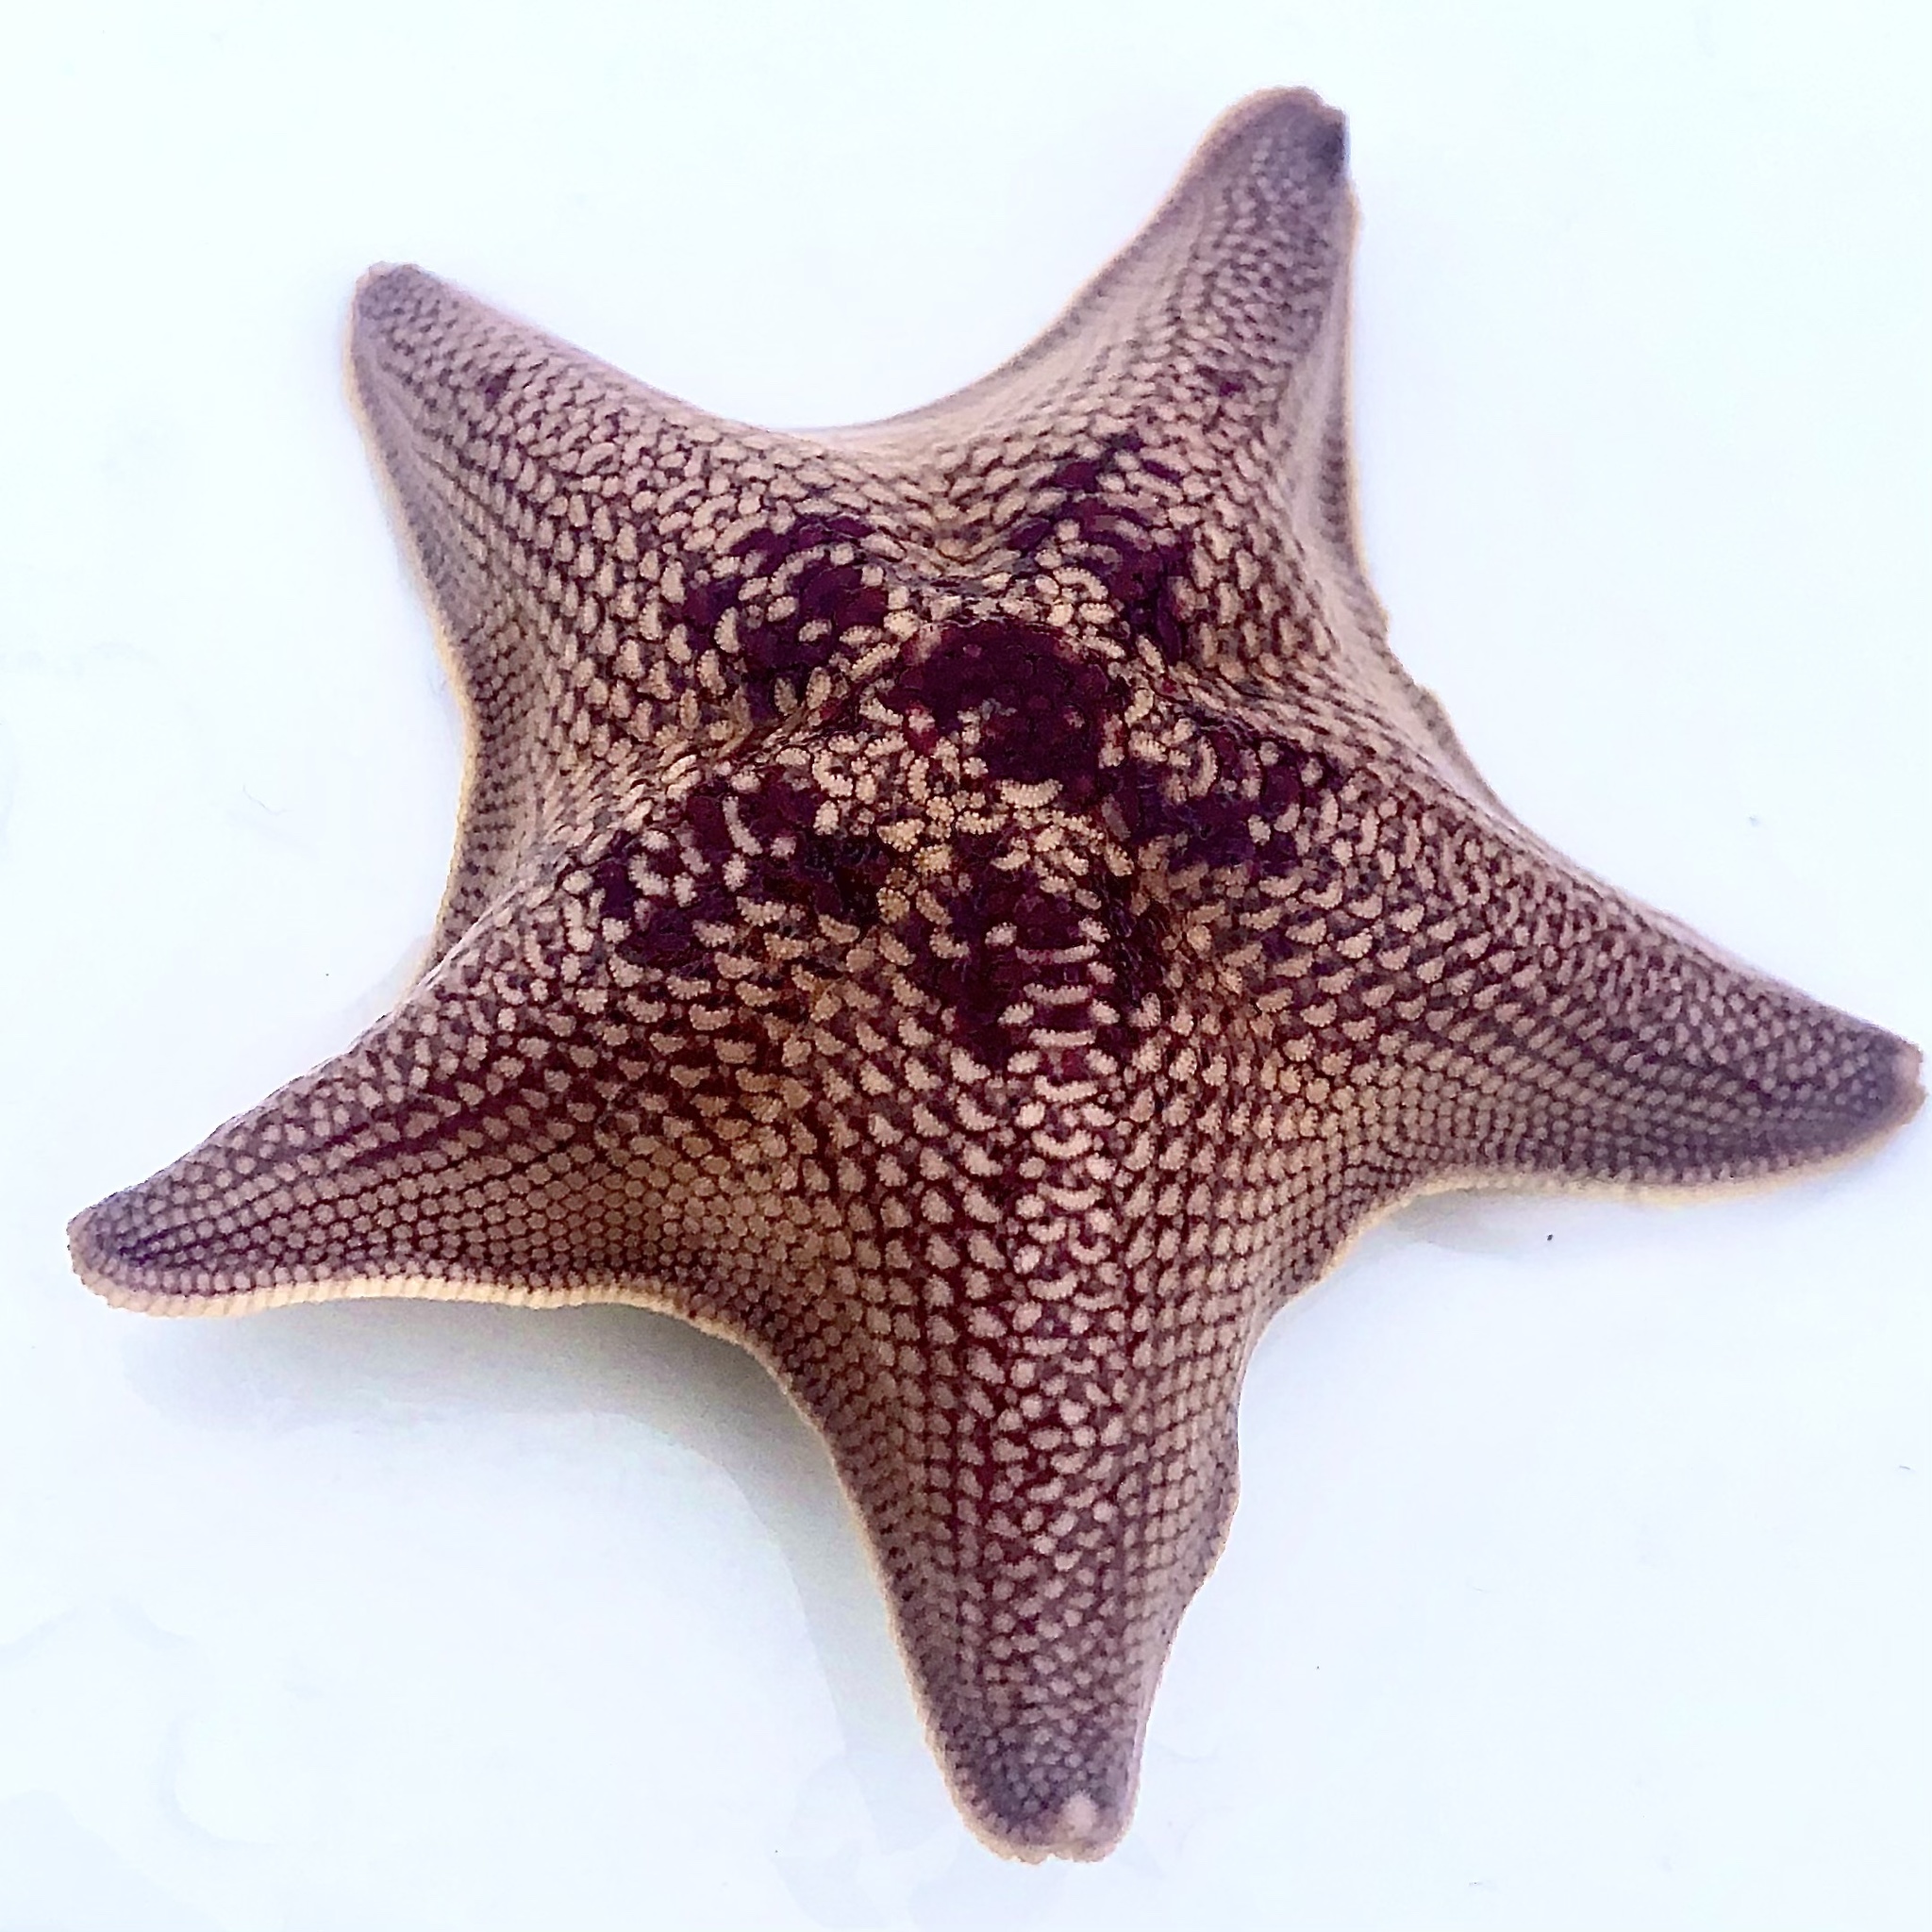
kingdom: Animalia
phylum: Echinodermata
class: Asteroidea
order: Valvatida
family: Asterinidae
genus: Patiria
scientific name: Patiria miniata
